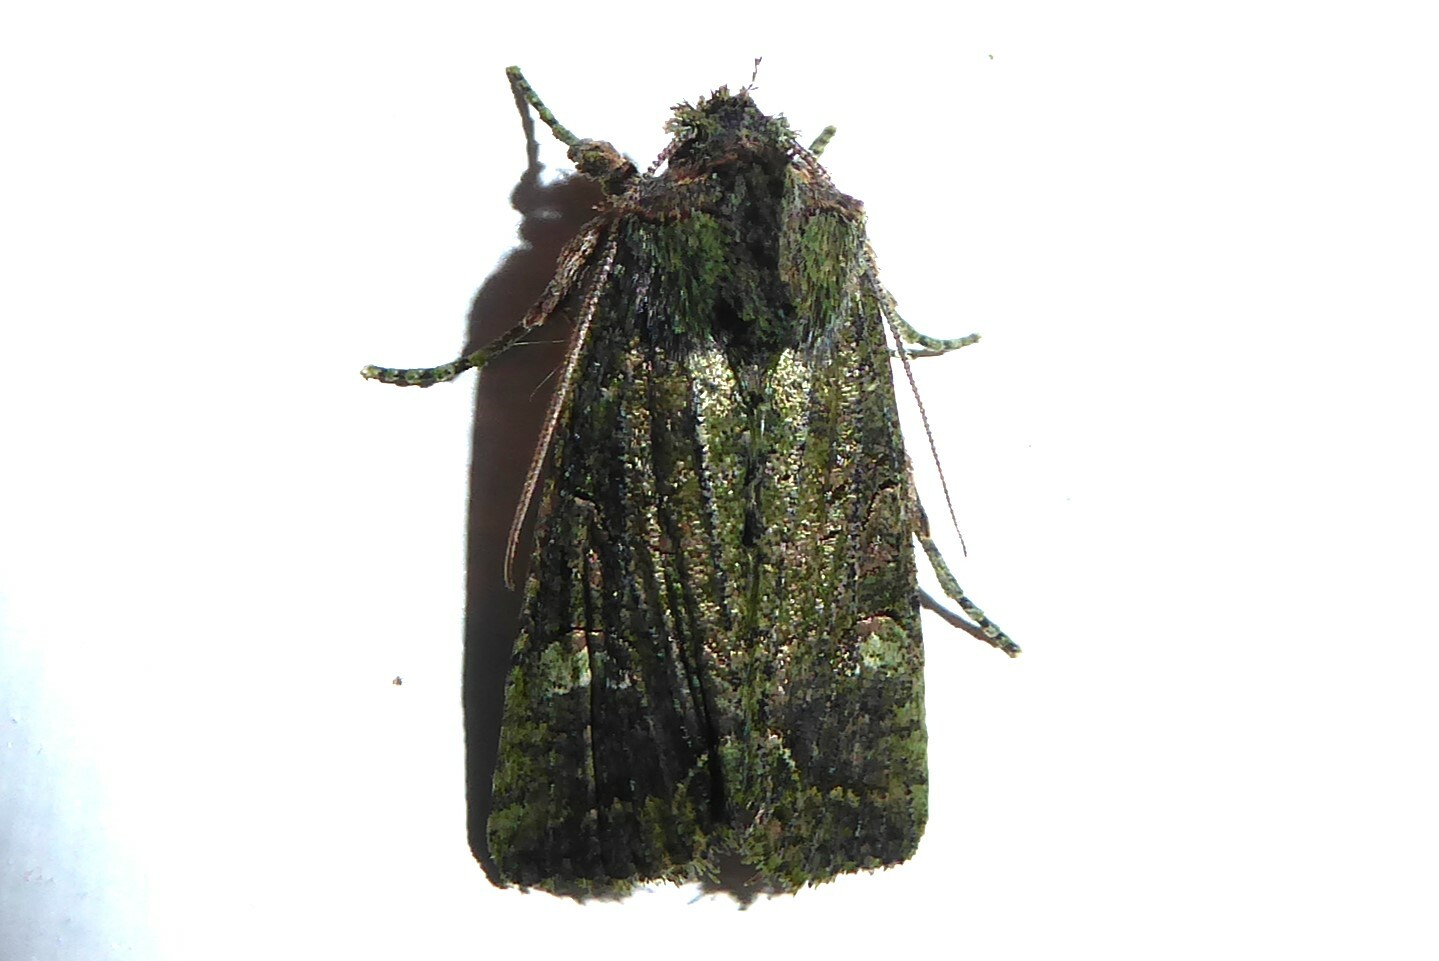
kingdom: Animalia
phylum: Arthropoda
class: Insecta
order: Lepidoptera
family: Noctuidae
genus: Meterana
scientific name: Meterana levis
